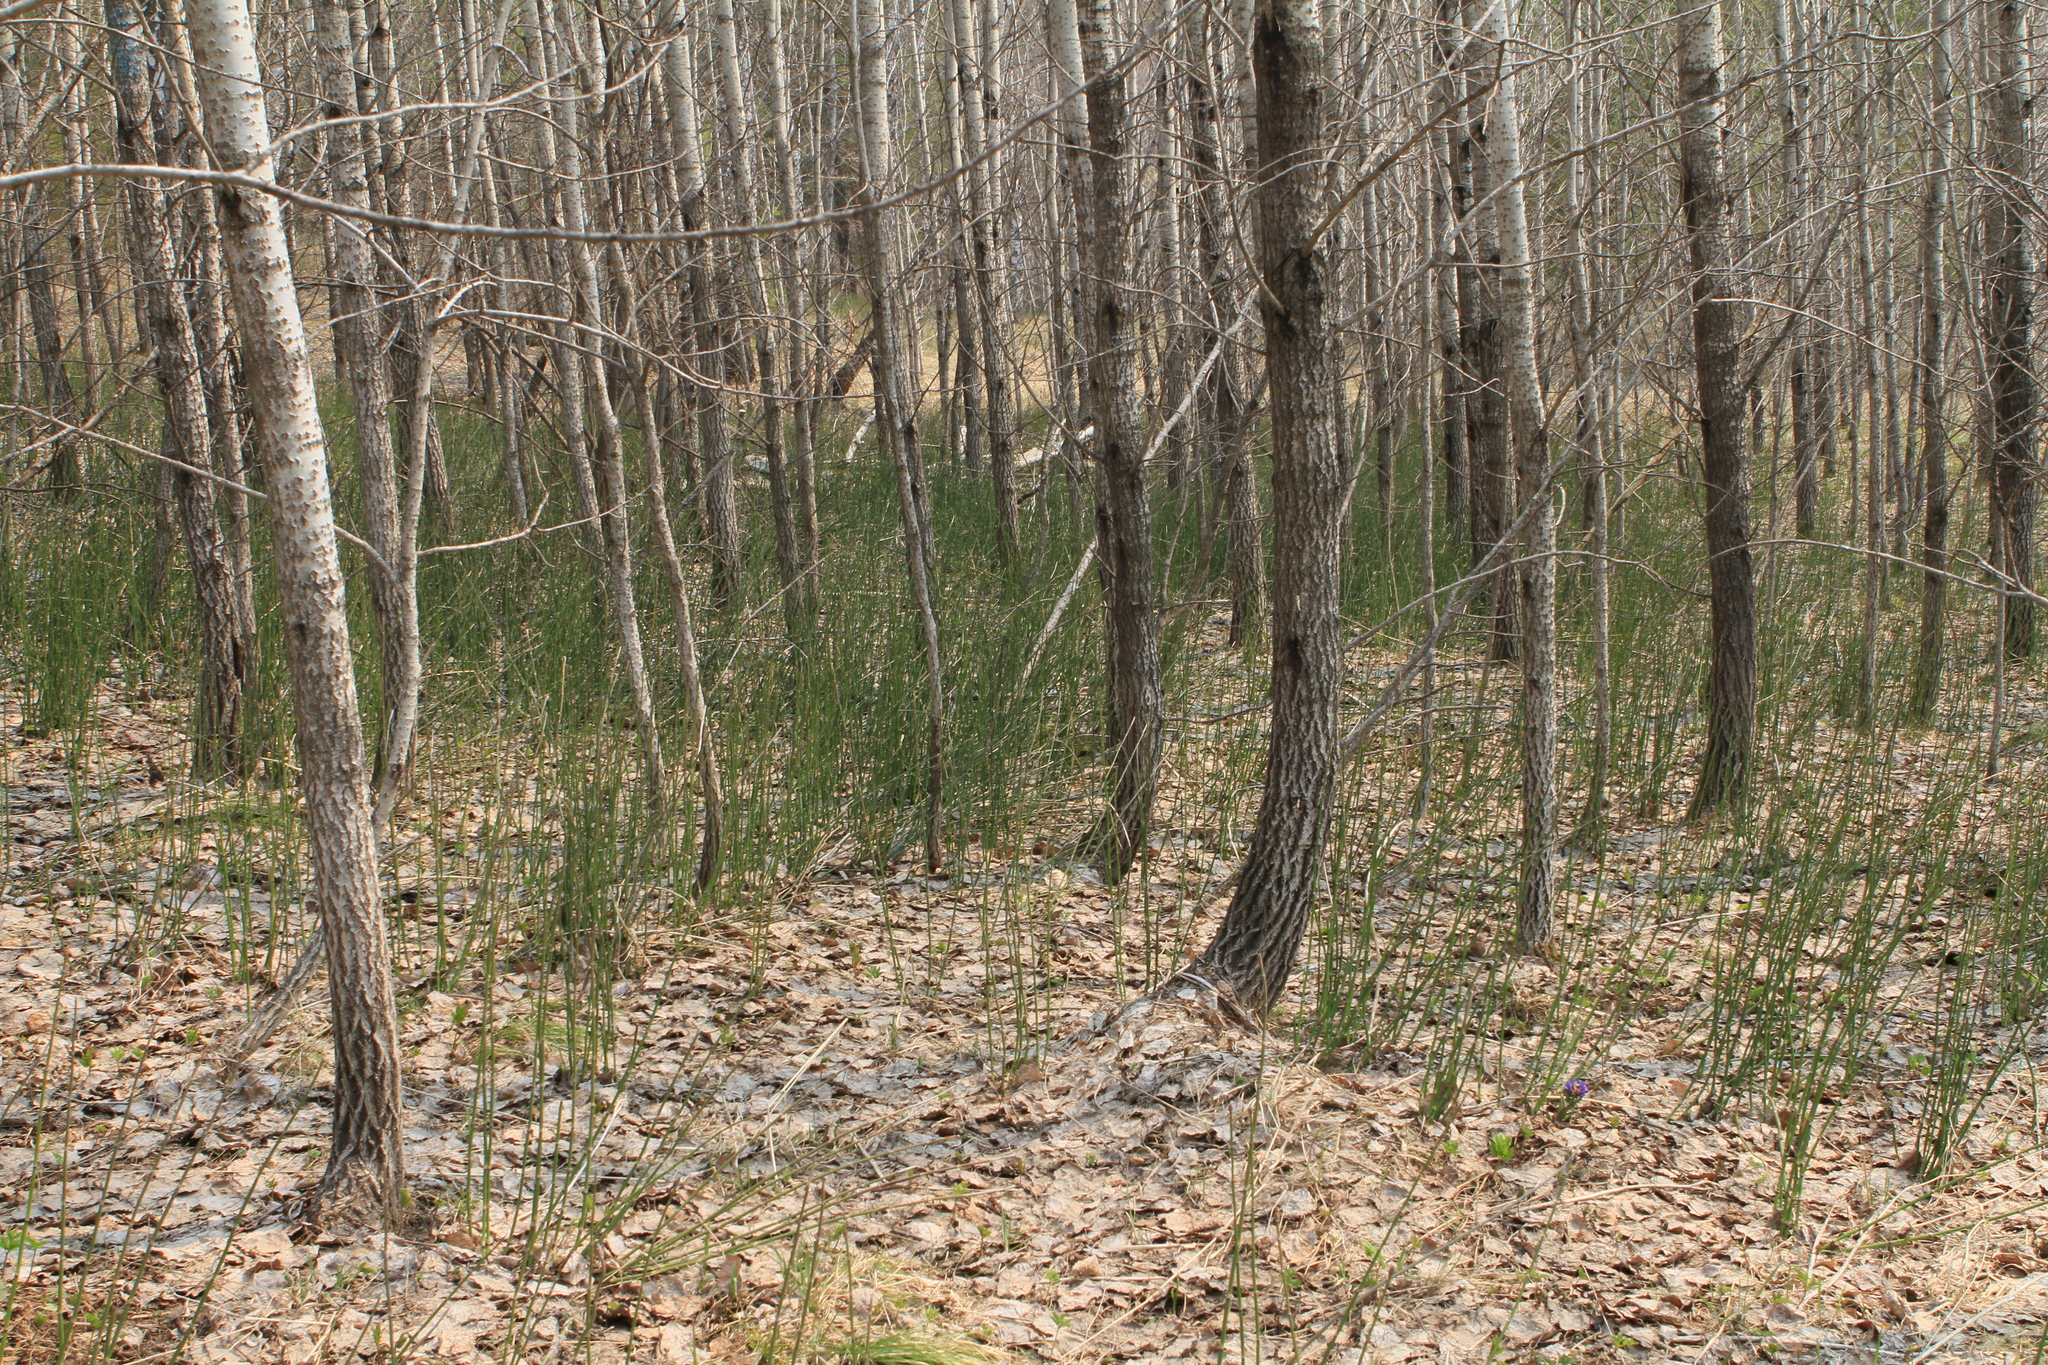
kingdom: Plantae
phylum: Tracheophyta
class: Polypodiopsida
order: Equisetales
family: Equisetaceae
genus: Equisetum
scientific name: Equisetum hyemale
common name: Rough horsetail
